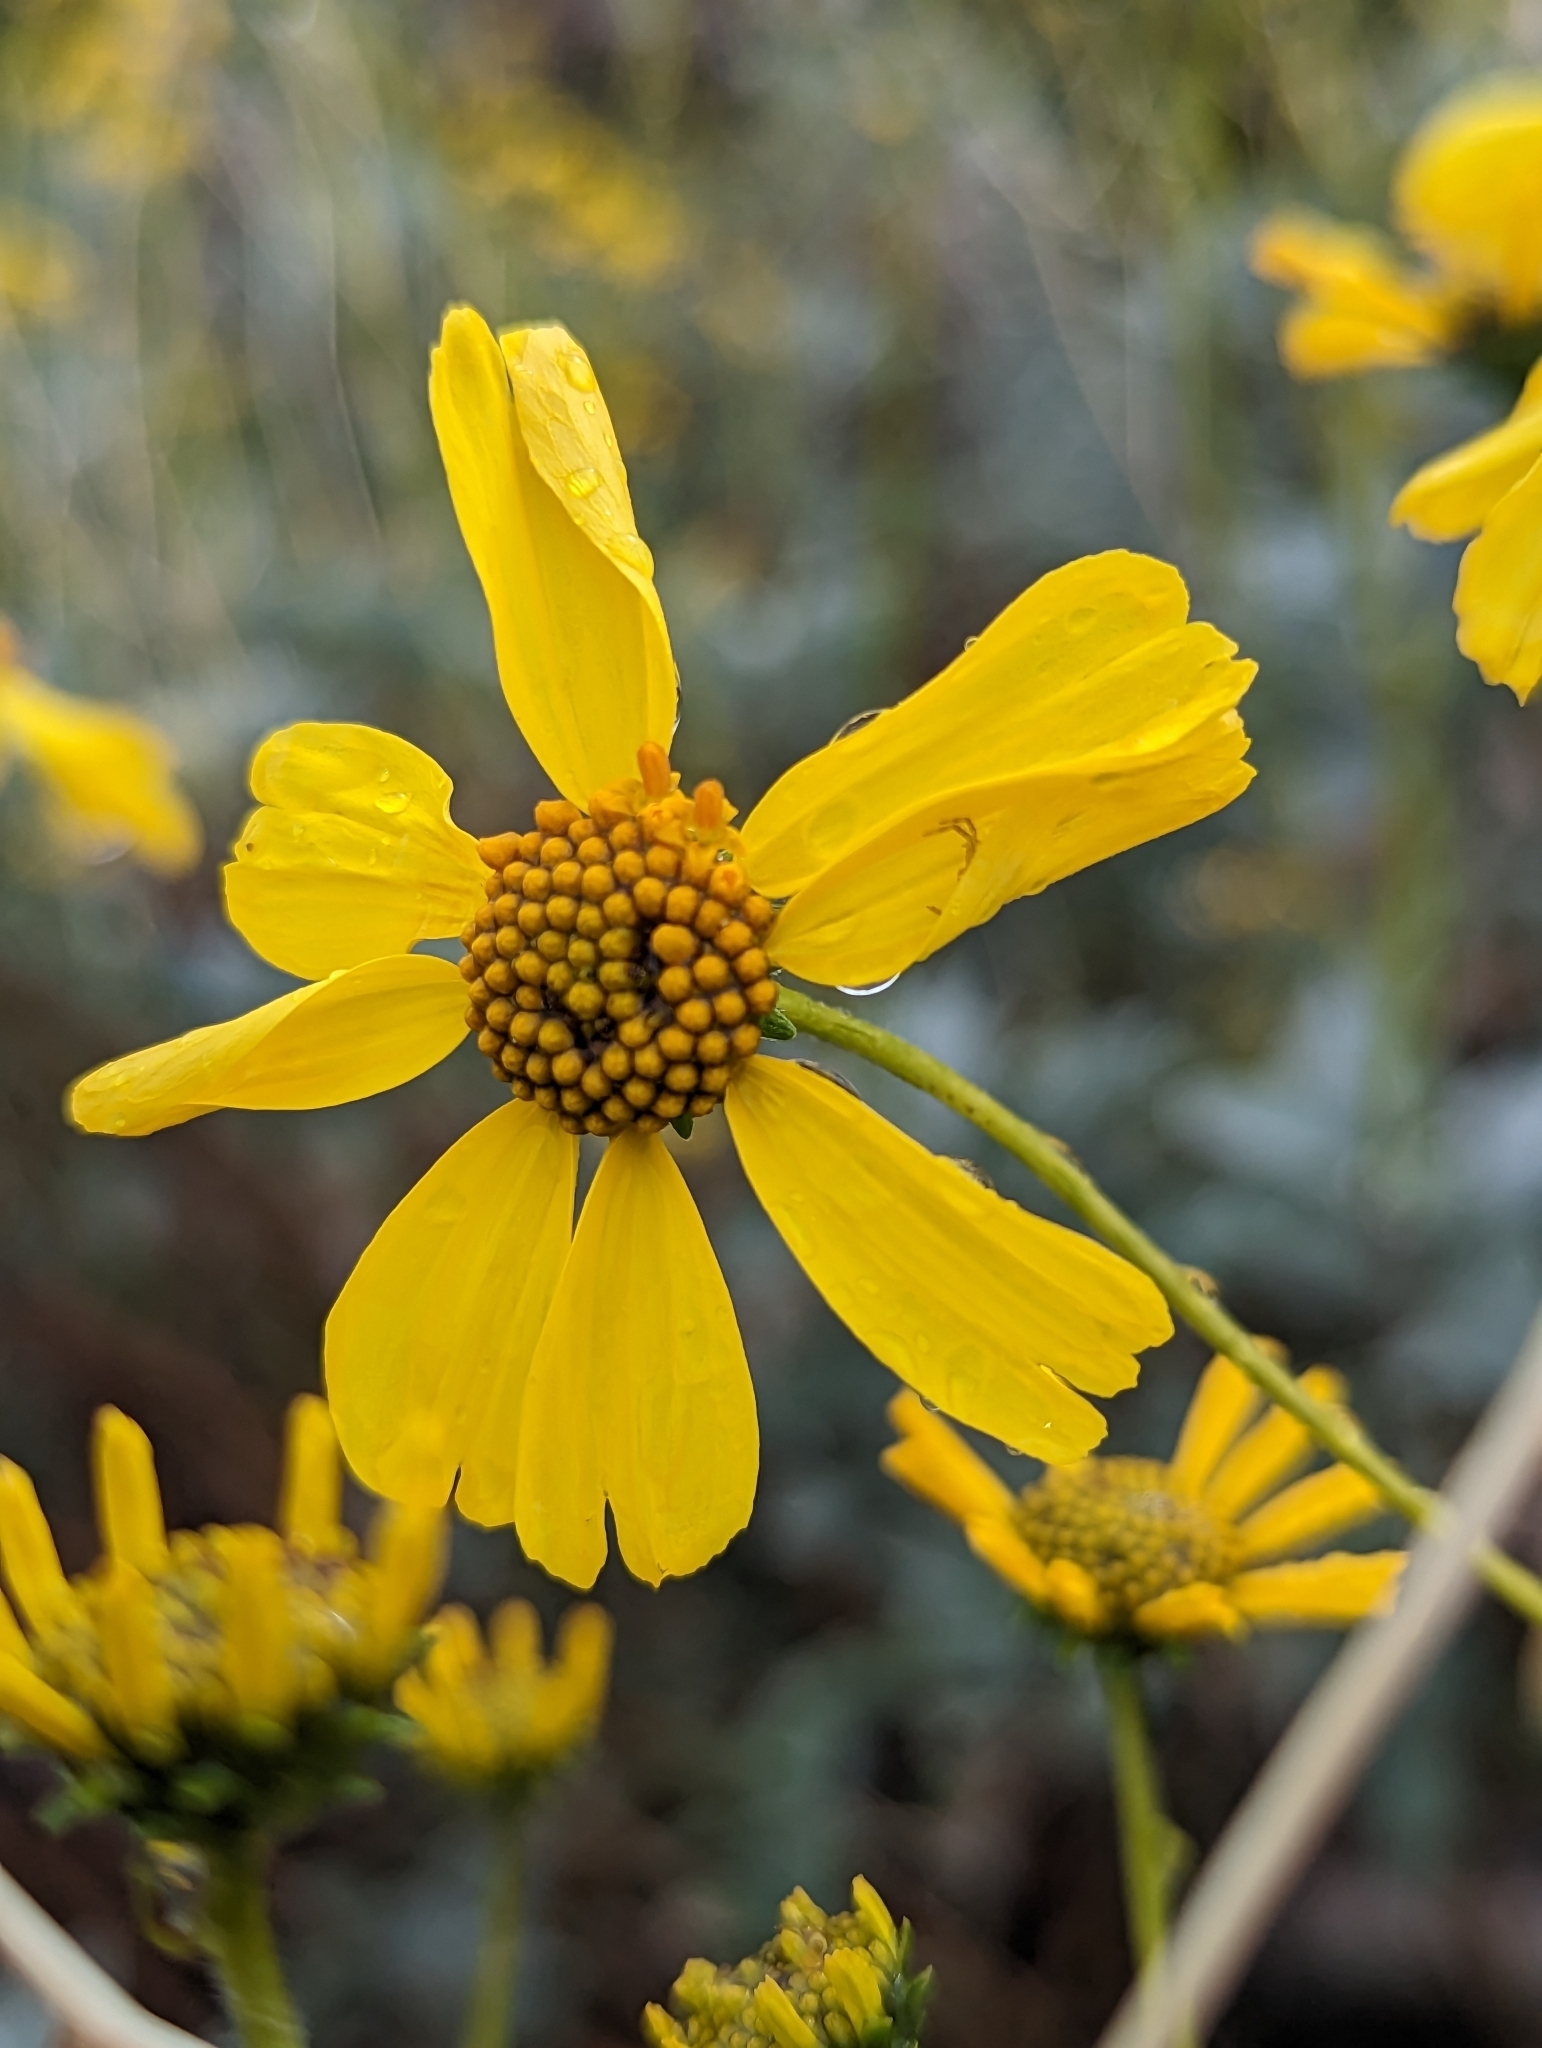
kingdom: Plantae
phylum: Tracheophyta
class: Magnoliopsida
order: Asterales
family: Asteraceae
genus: Encelia
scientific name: Encelia farinosa
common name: Brittlebush
